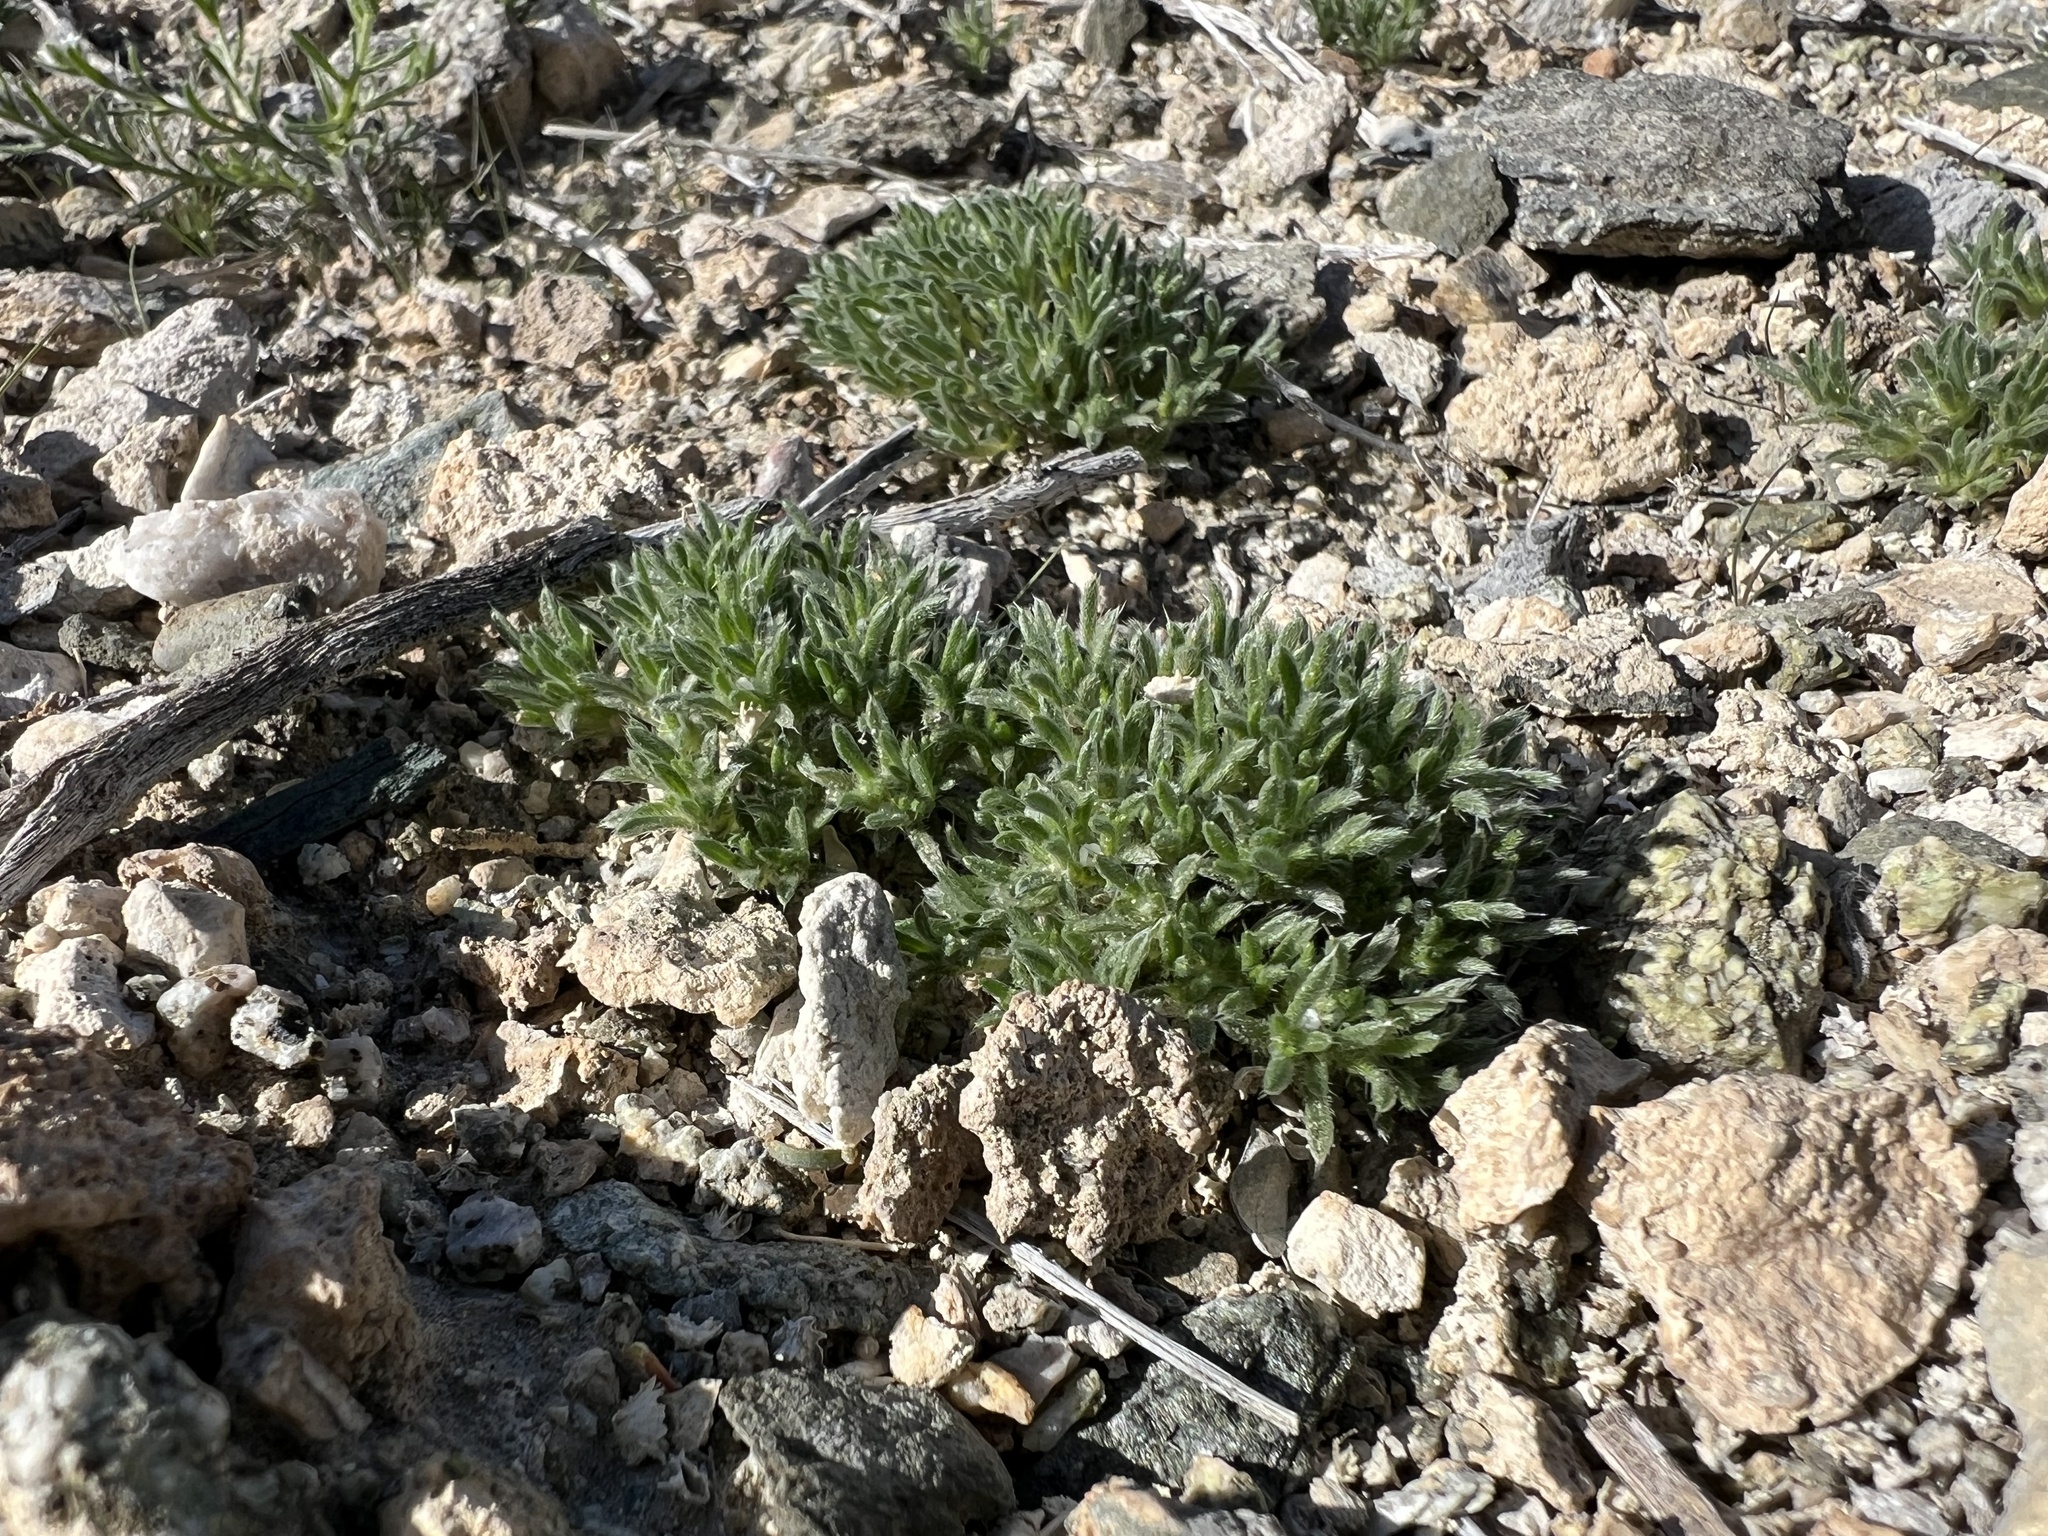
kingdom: Plantae
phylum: Tracheophyta
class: Magnoliopsida
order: Boraginales
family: Boraginaceae
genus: Greeneocharis
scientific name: Greeneocharis circumscissa
